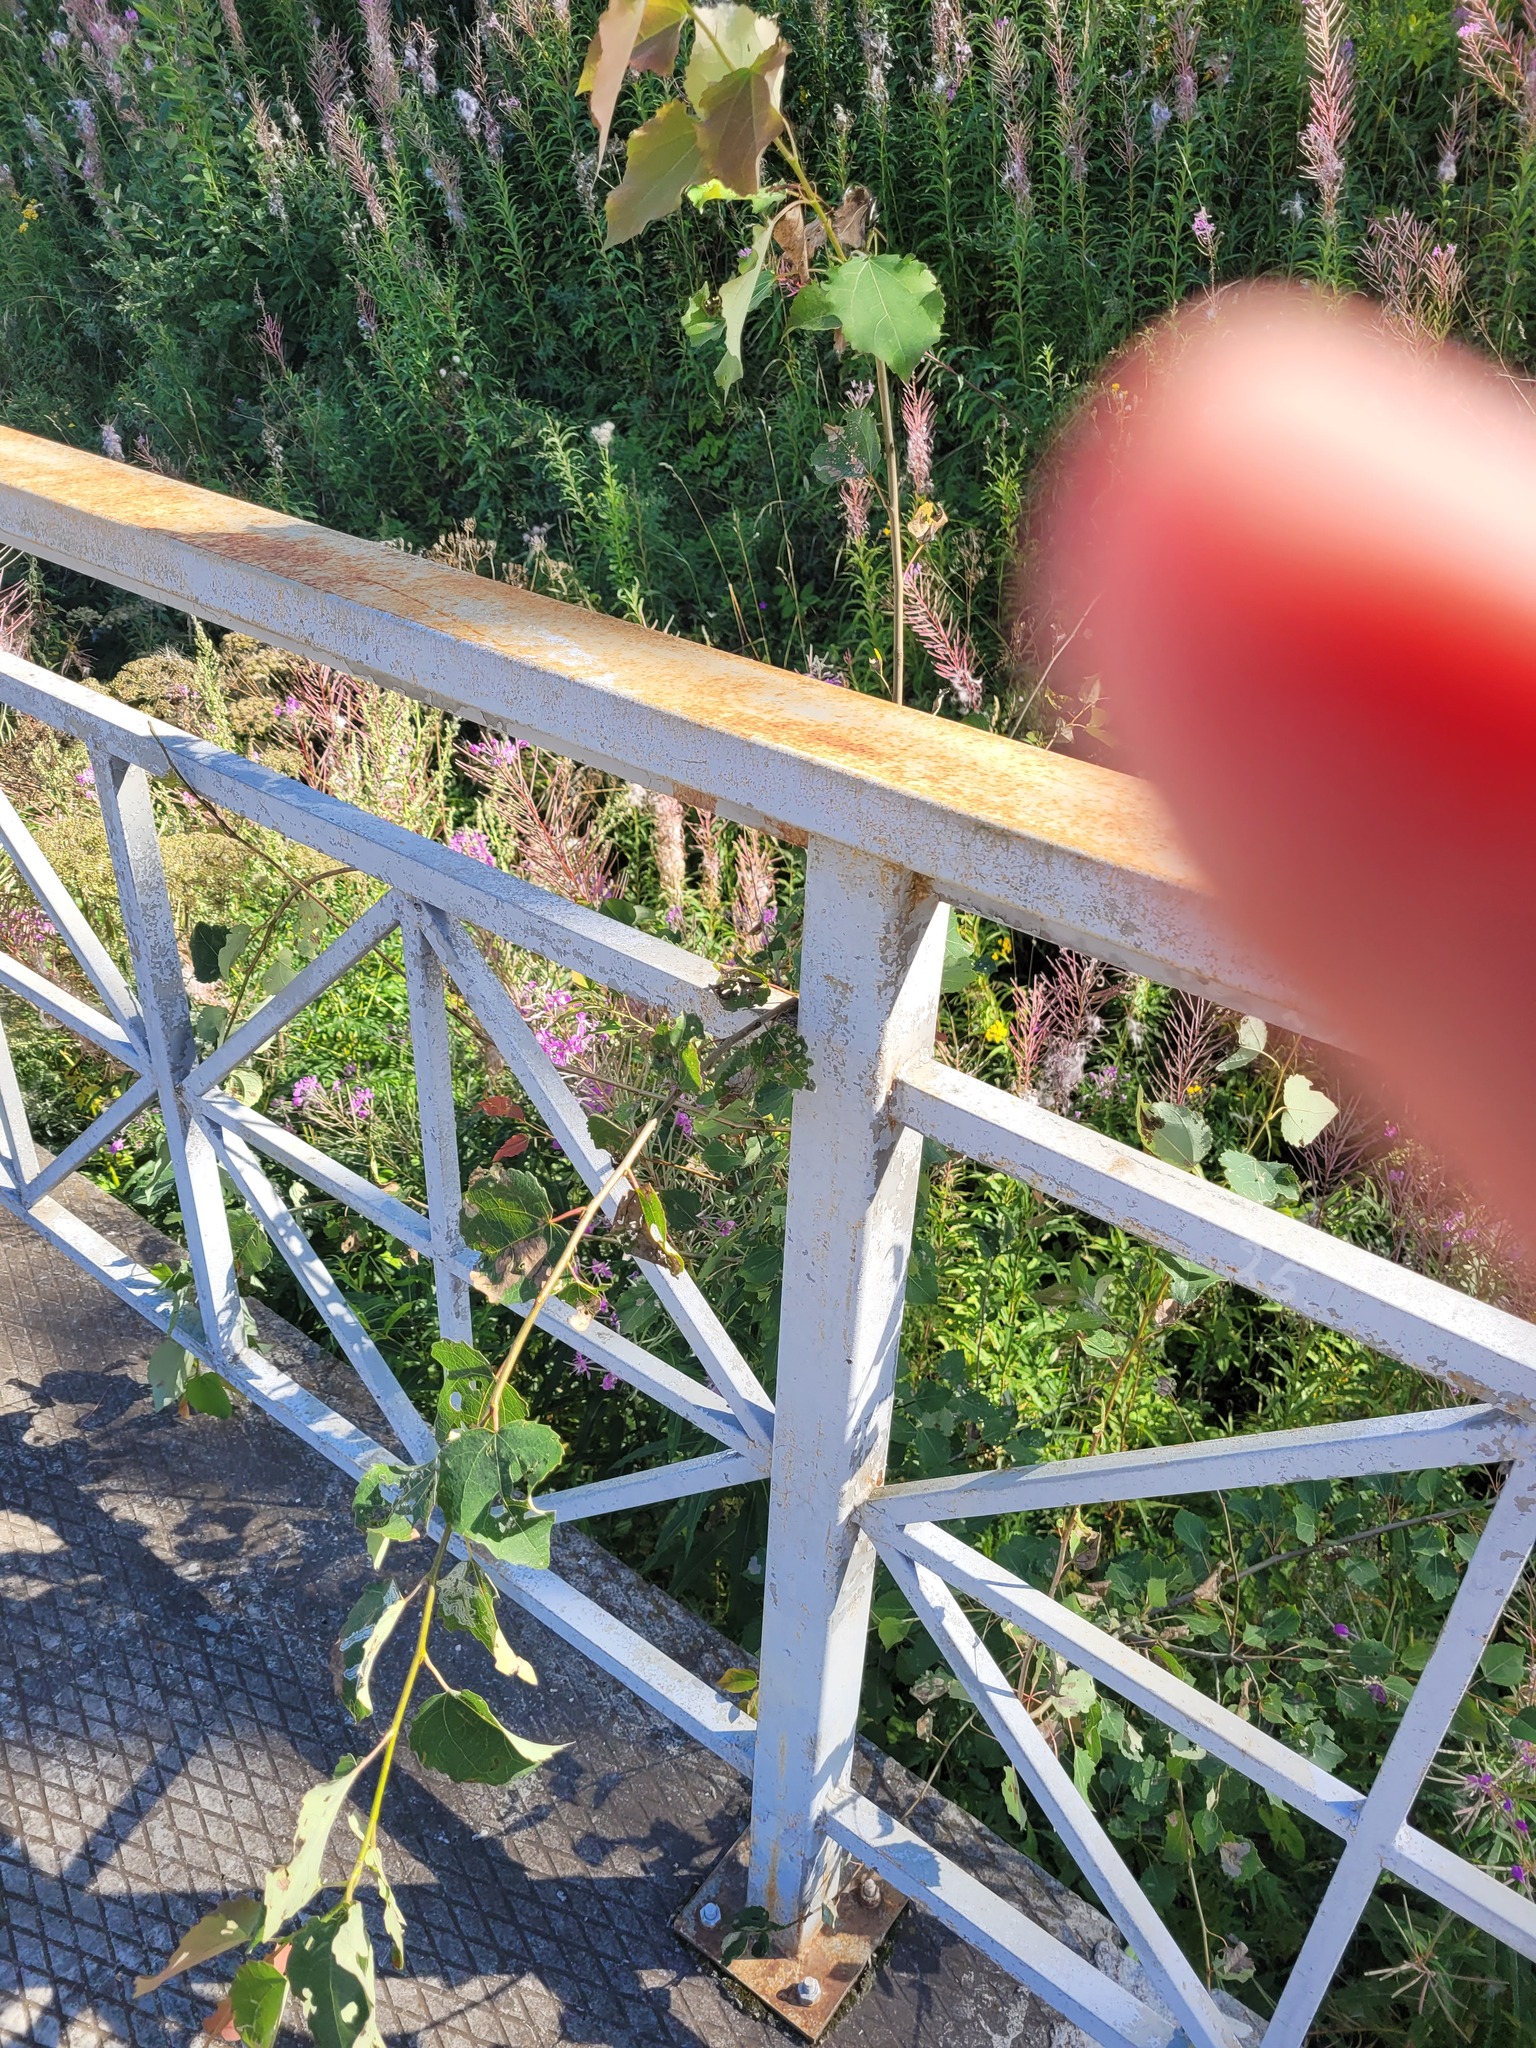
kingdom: Plantae
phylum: Tracheophyta
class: Magnoliopsida
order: Malpighiales
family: Salicaceae
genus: Populus
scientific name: Populus tremula
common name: European aspen
